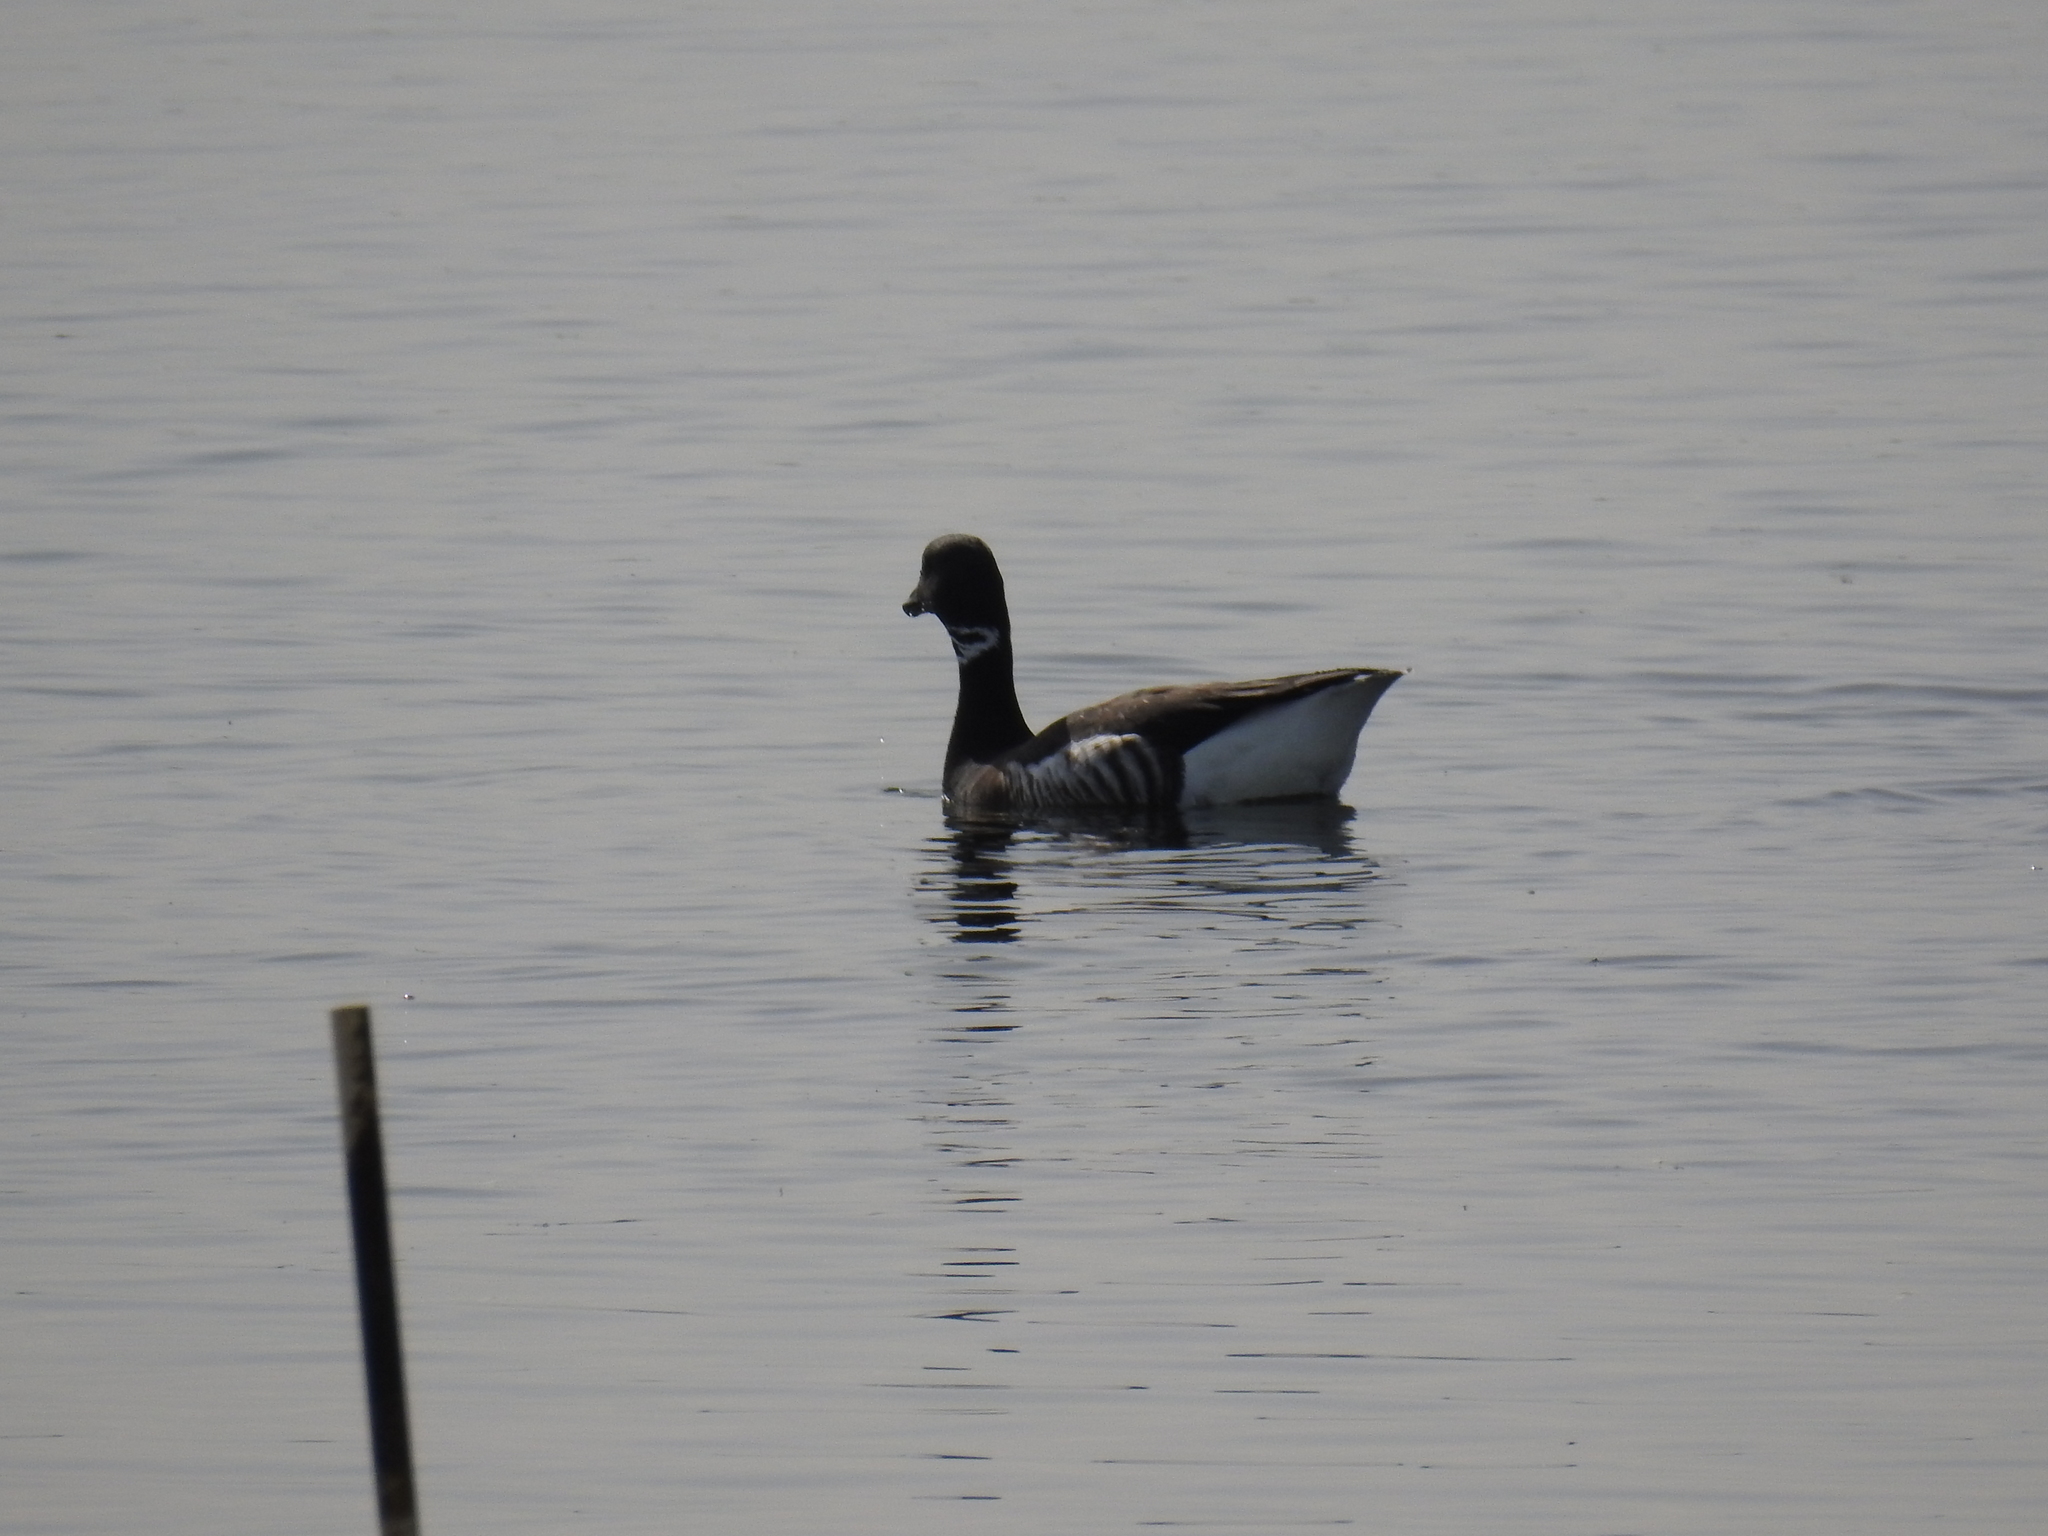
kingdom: Animalia
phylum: Chordata
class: Aves
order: Anseriformes
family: Anatidae
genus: Branta
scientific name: Branta bernicla
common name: Brant goose
